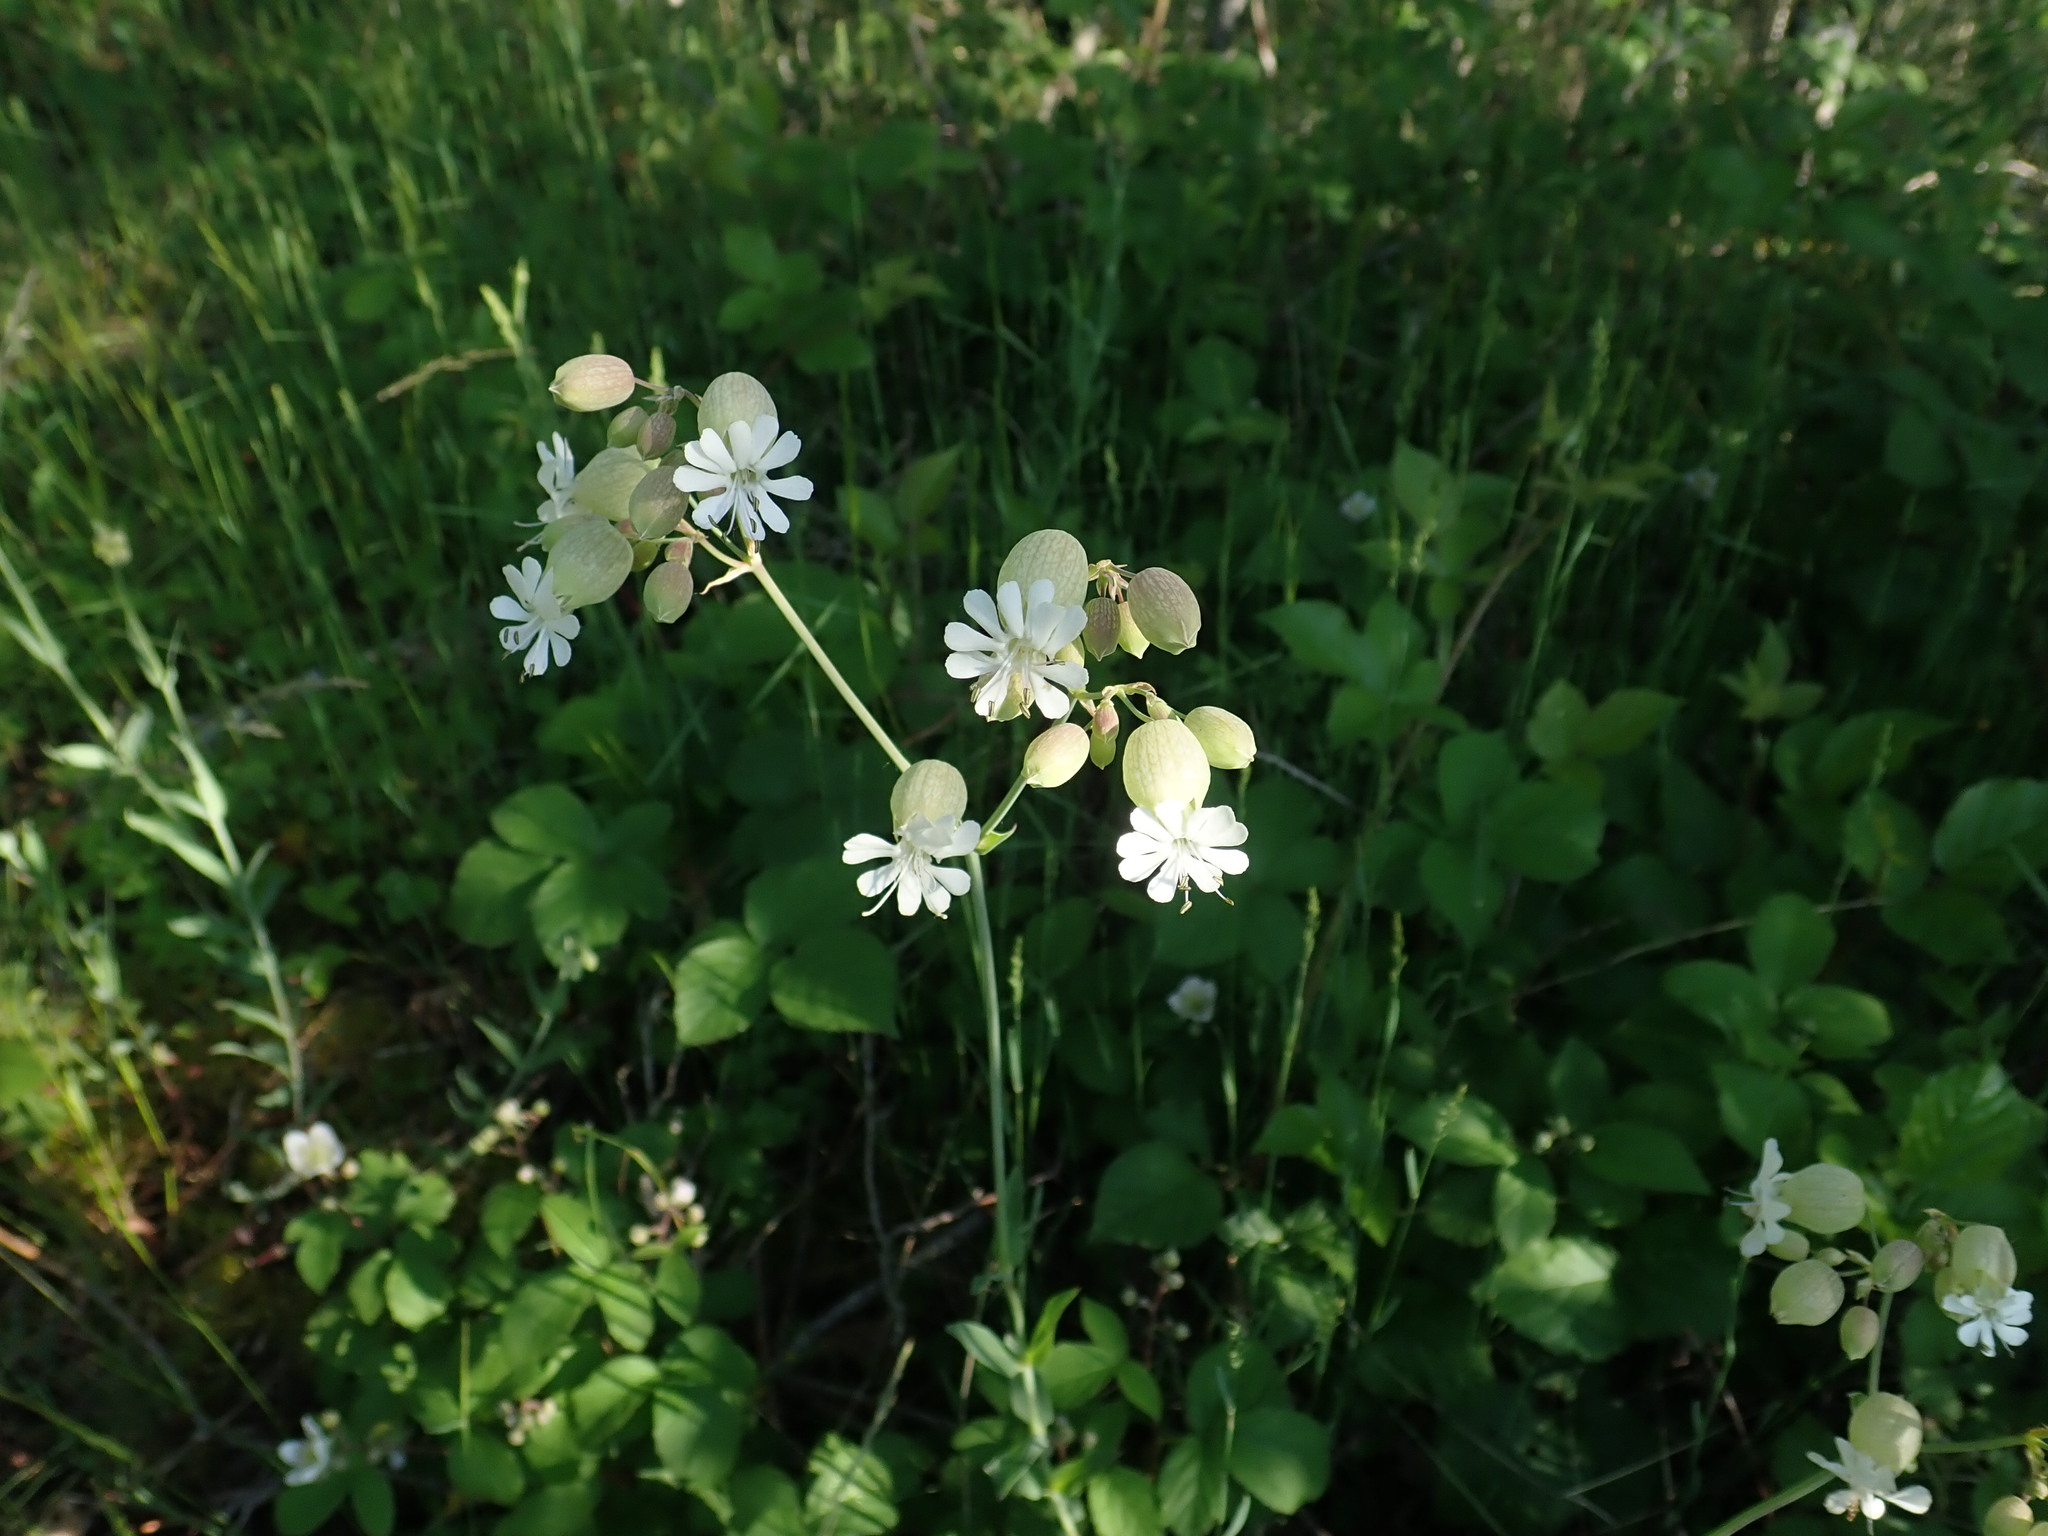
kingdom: Plantae
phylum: Tracheophyta
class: Magnoliopsida
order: Caryophyllales
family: Caryophyllaceae
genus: Silene
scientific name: Silene vulgaris
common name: Bladder campion
